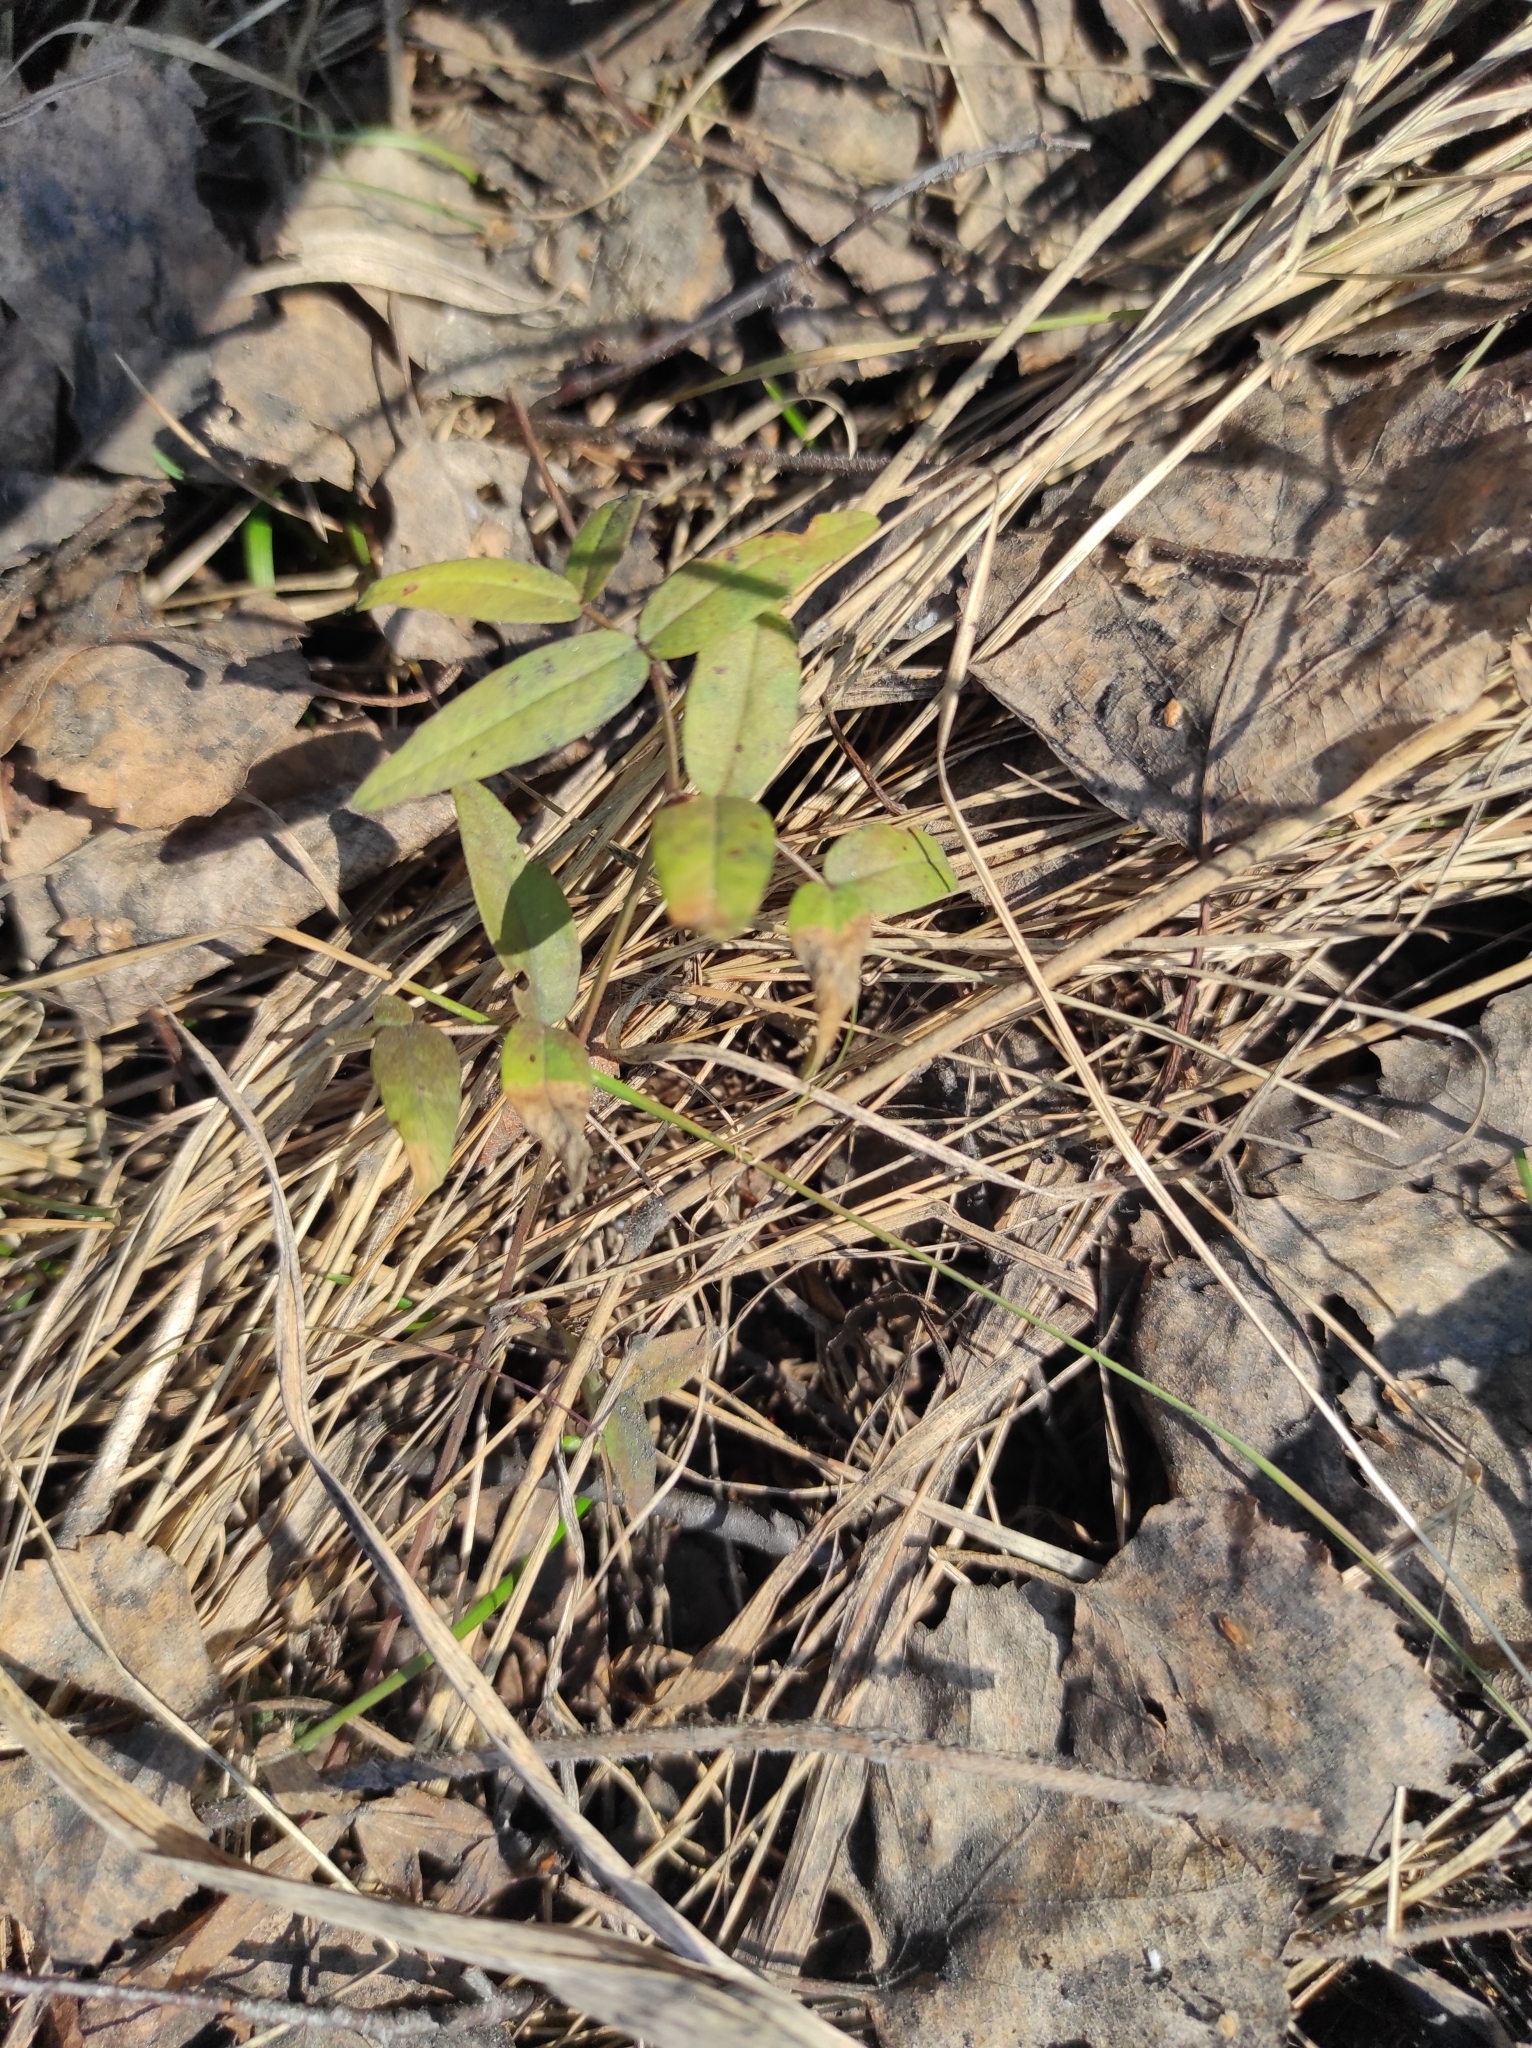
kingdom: Plantae
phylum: Tracheophyta
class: Magnoliopsida
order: Fabales
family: Fabaceae
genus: Vicia
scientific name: Vicia sepium
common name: Bush vetch
